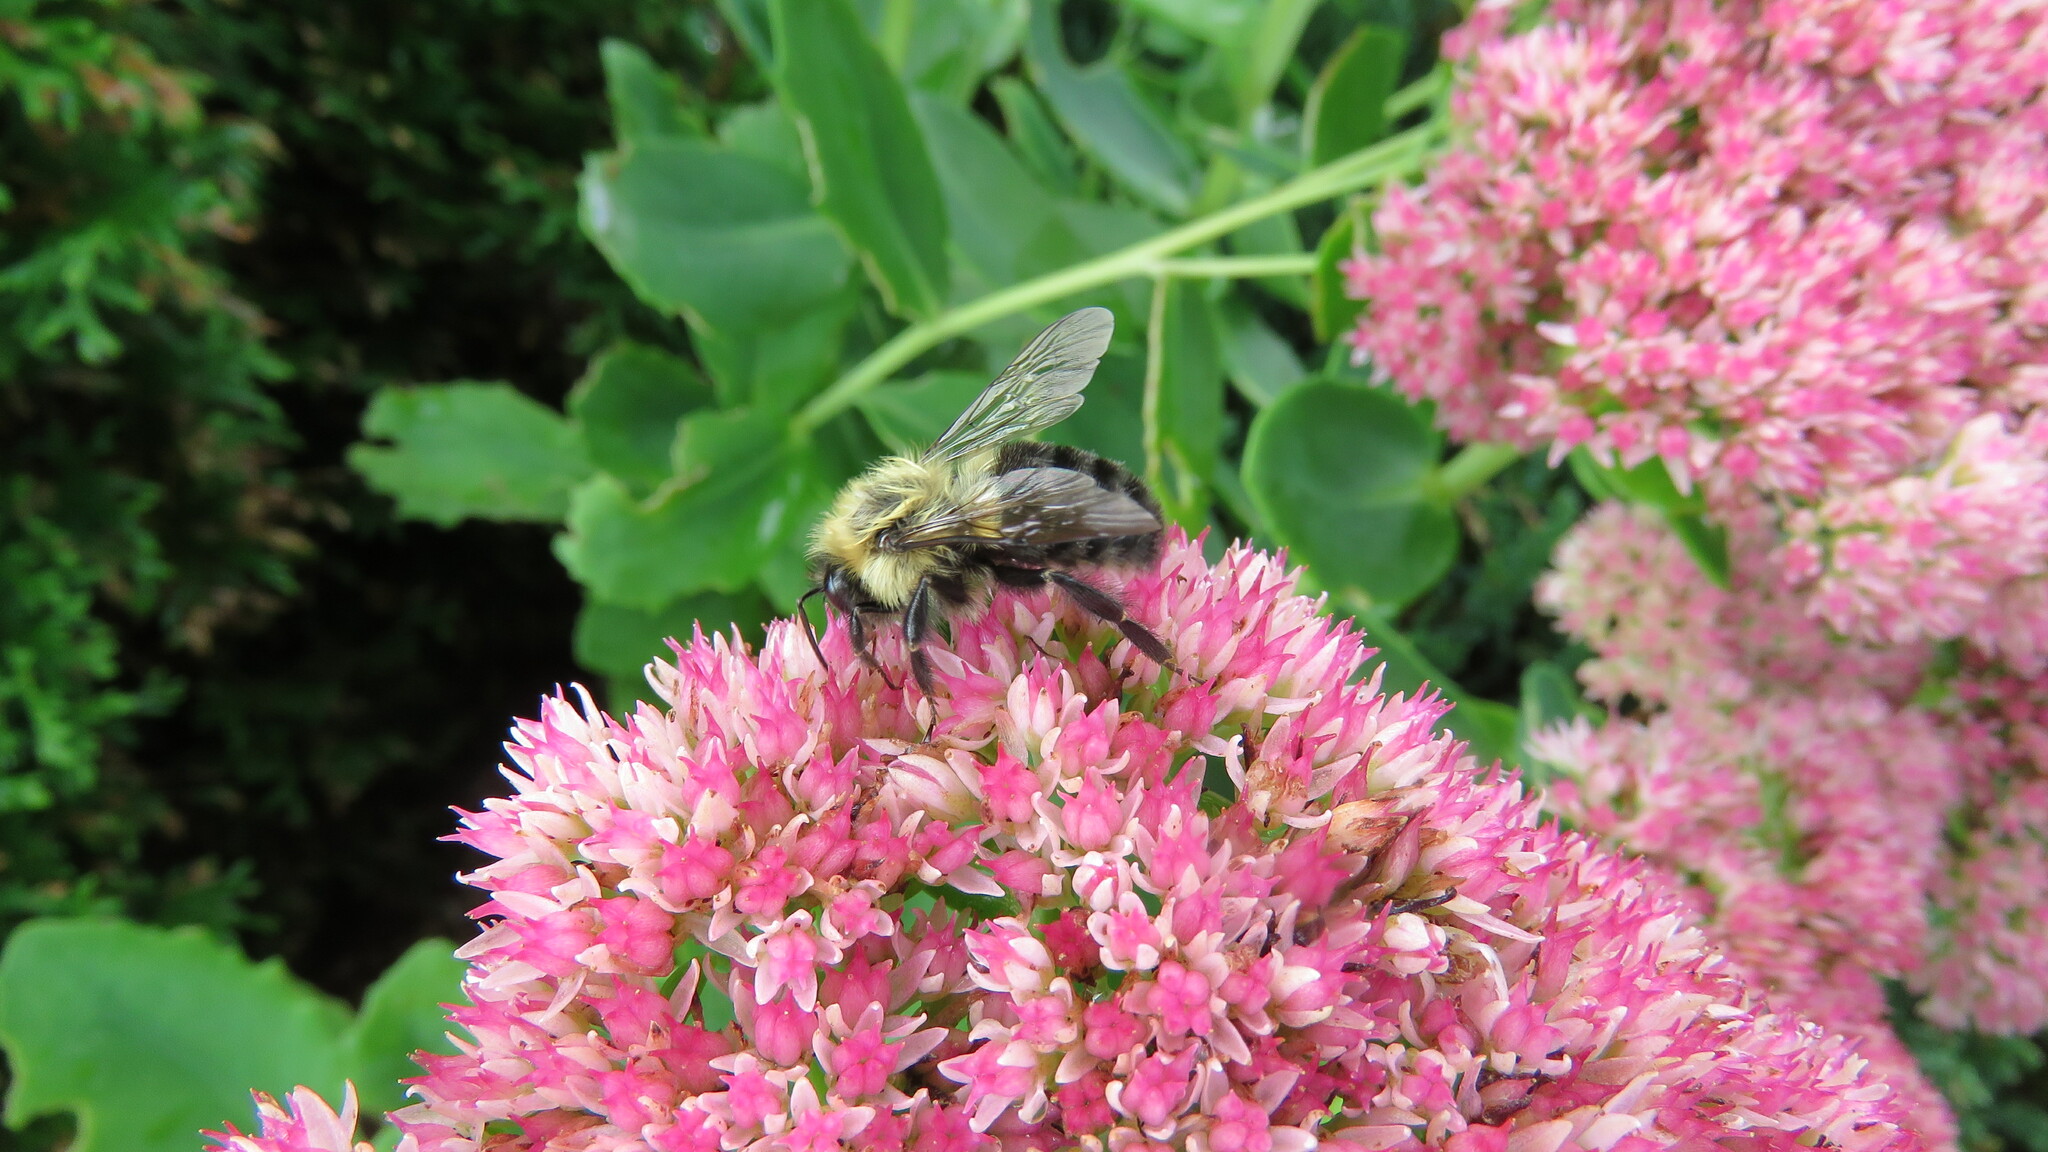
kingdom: Animalia
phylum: Arthropoda
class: Insecta
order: Hymenoptera
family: Apidae
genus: Bombus
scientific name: Bombus impatiens
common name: Common eastern bumble bee
